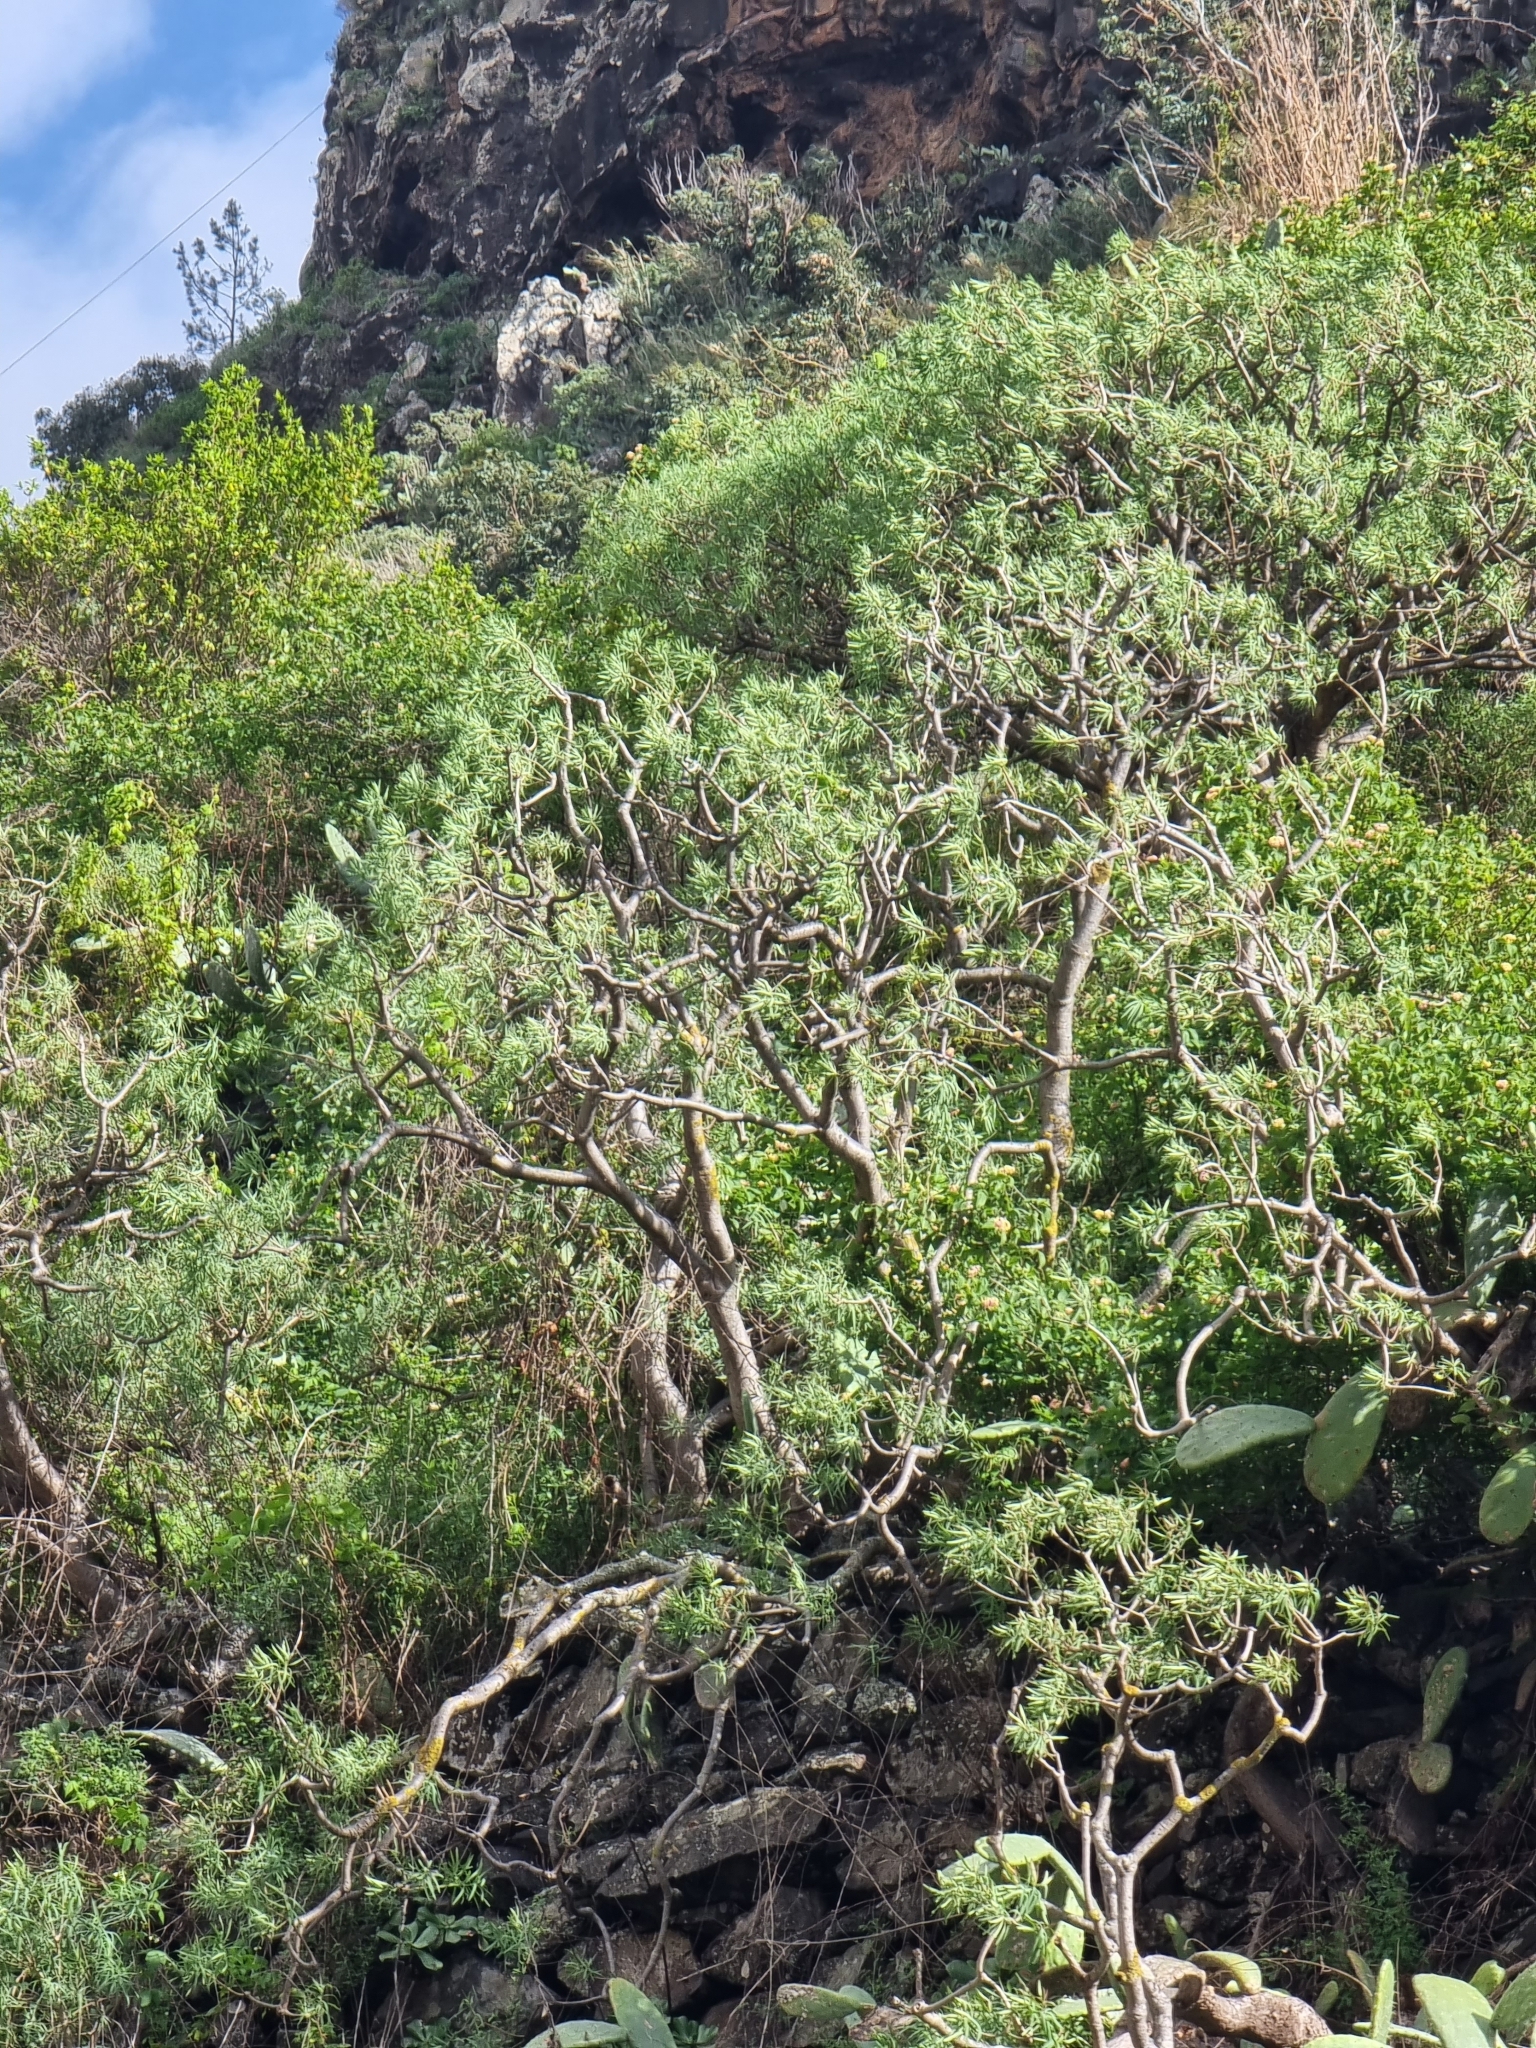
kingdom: Plantae
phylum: Tracheophyta
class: Magnoliopsida
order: Malpighiales
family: Euphorbiaceae
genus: Euphorbia
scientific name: Euphorbia piscatoria
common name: Fish-stunning spurge
